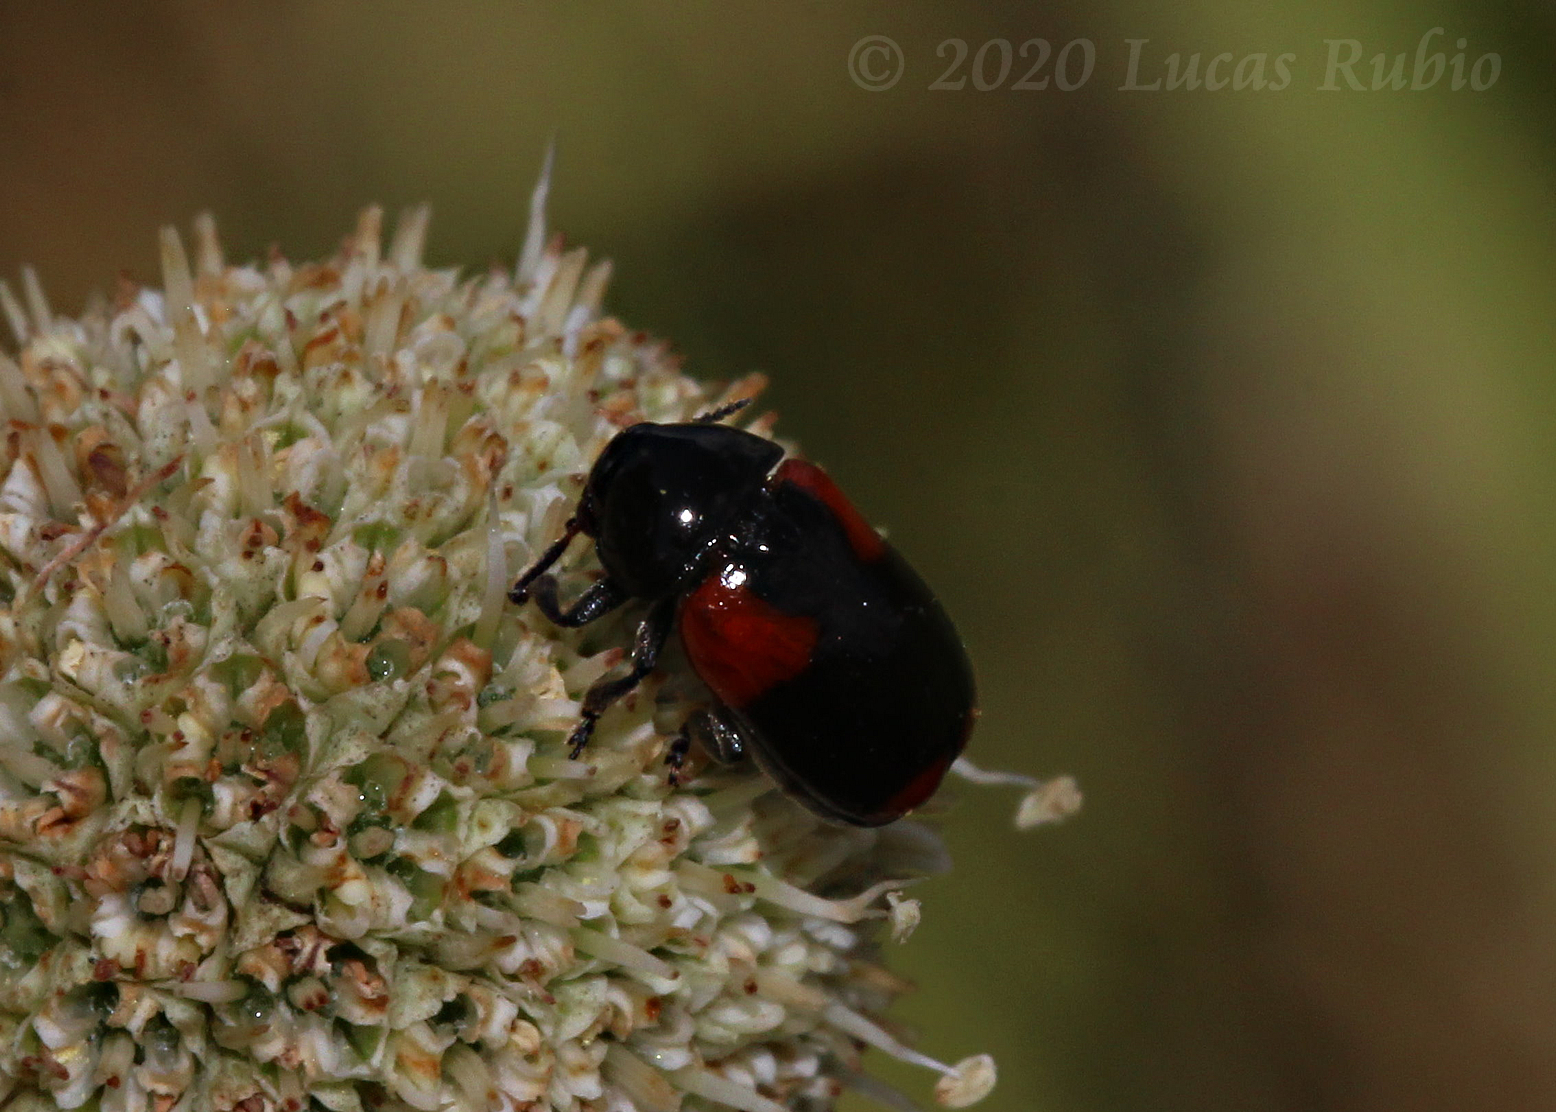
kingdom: Animalia
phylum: Arthropoda
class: Insecta
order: Coleoptera
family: Chrysomelidae
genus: Temnodachrys
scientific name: Temnodachrys
